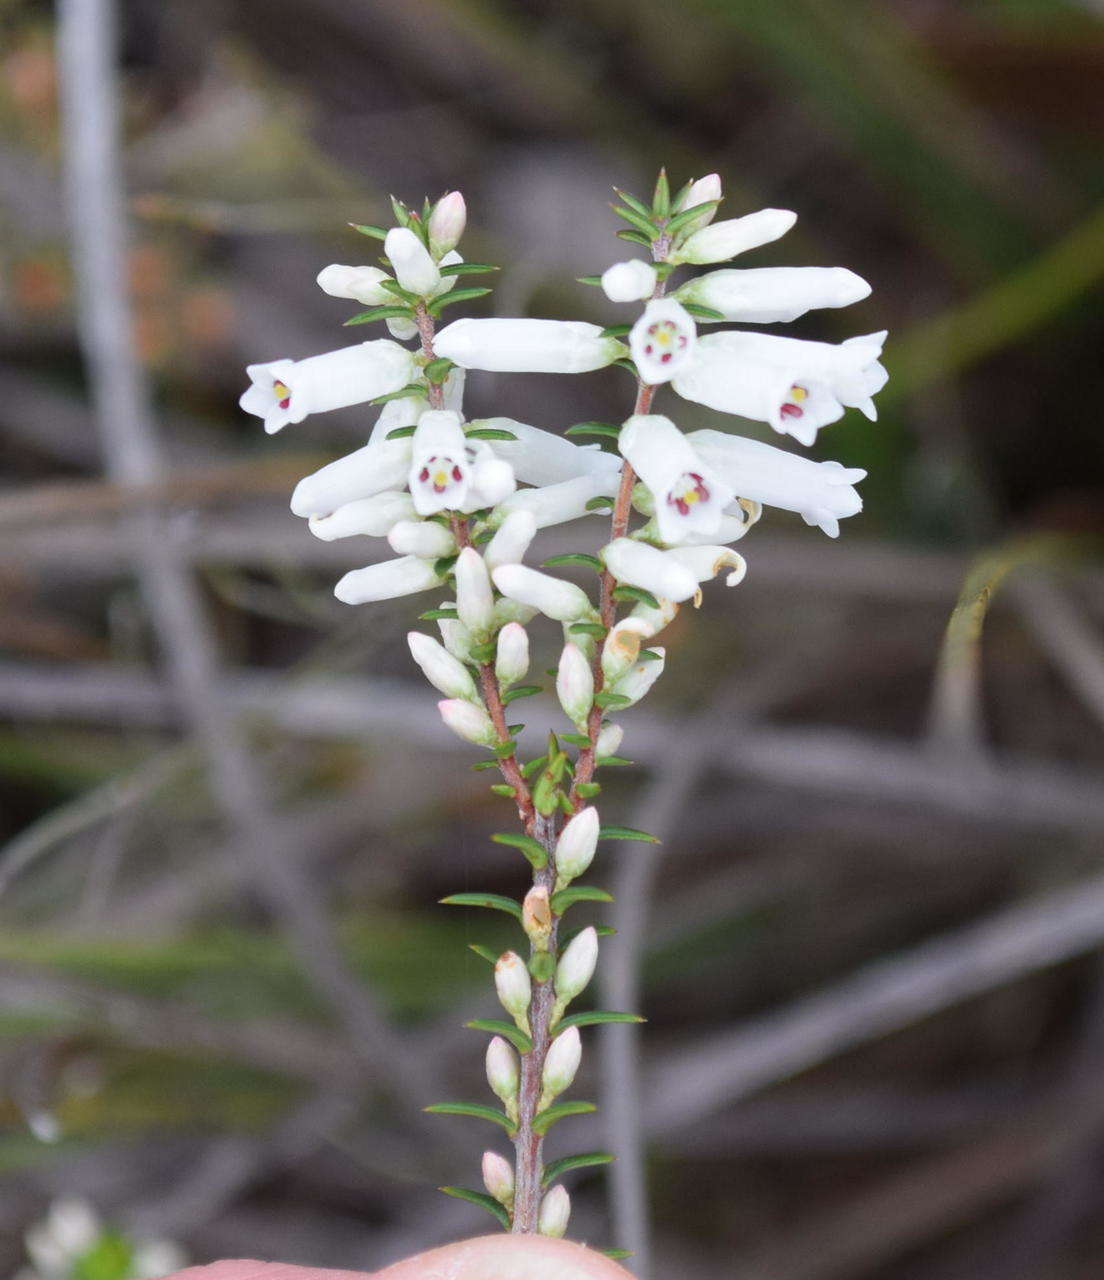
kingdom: Plantae
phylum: Tracheophyta
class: Magnoliopsida
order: Ericales
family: Ericaceae
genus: Epacris
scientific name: Epacris impressa
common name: Common-heath
